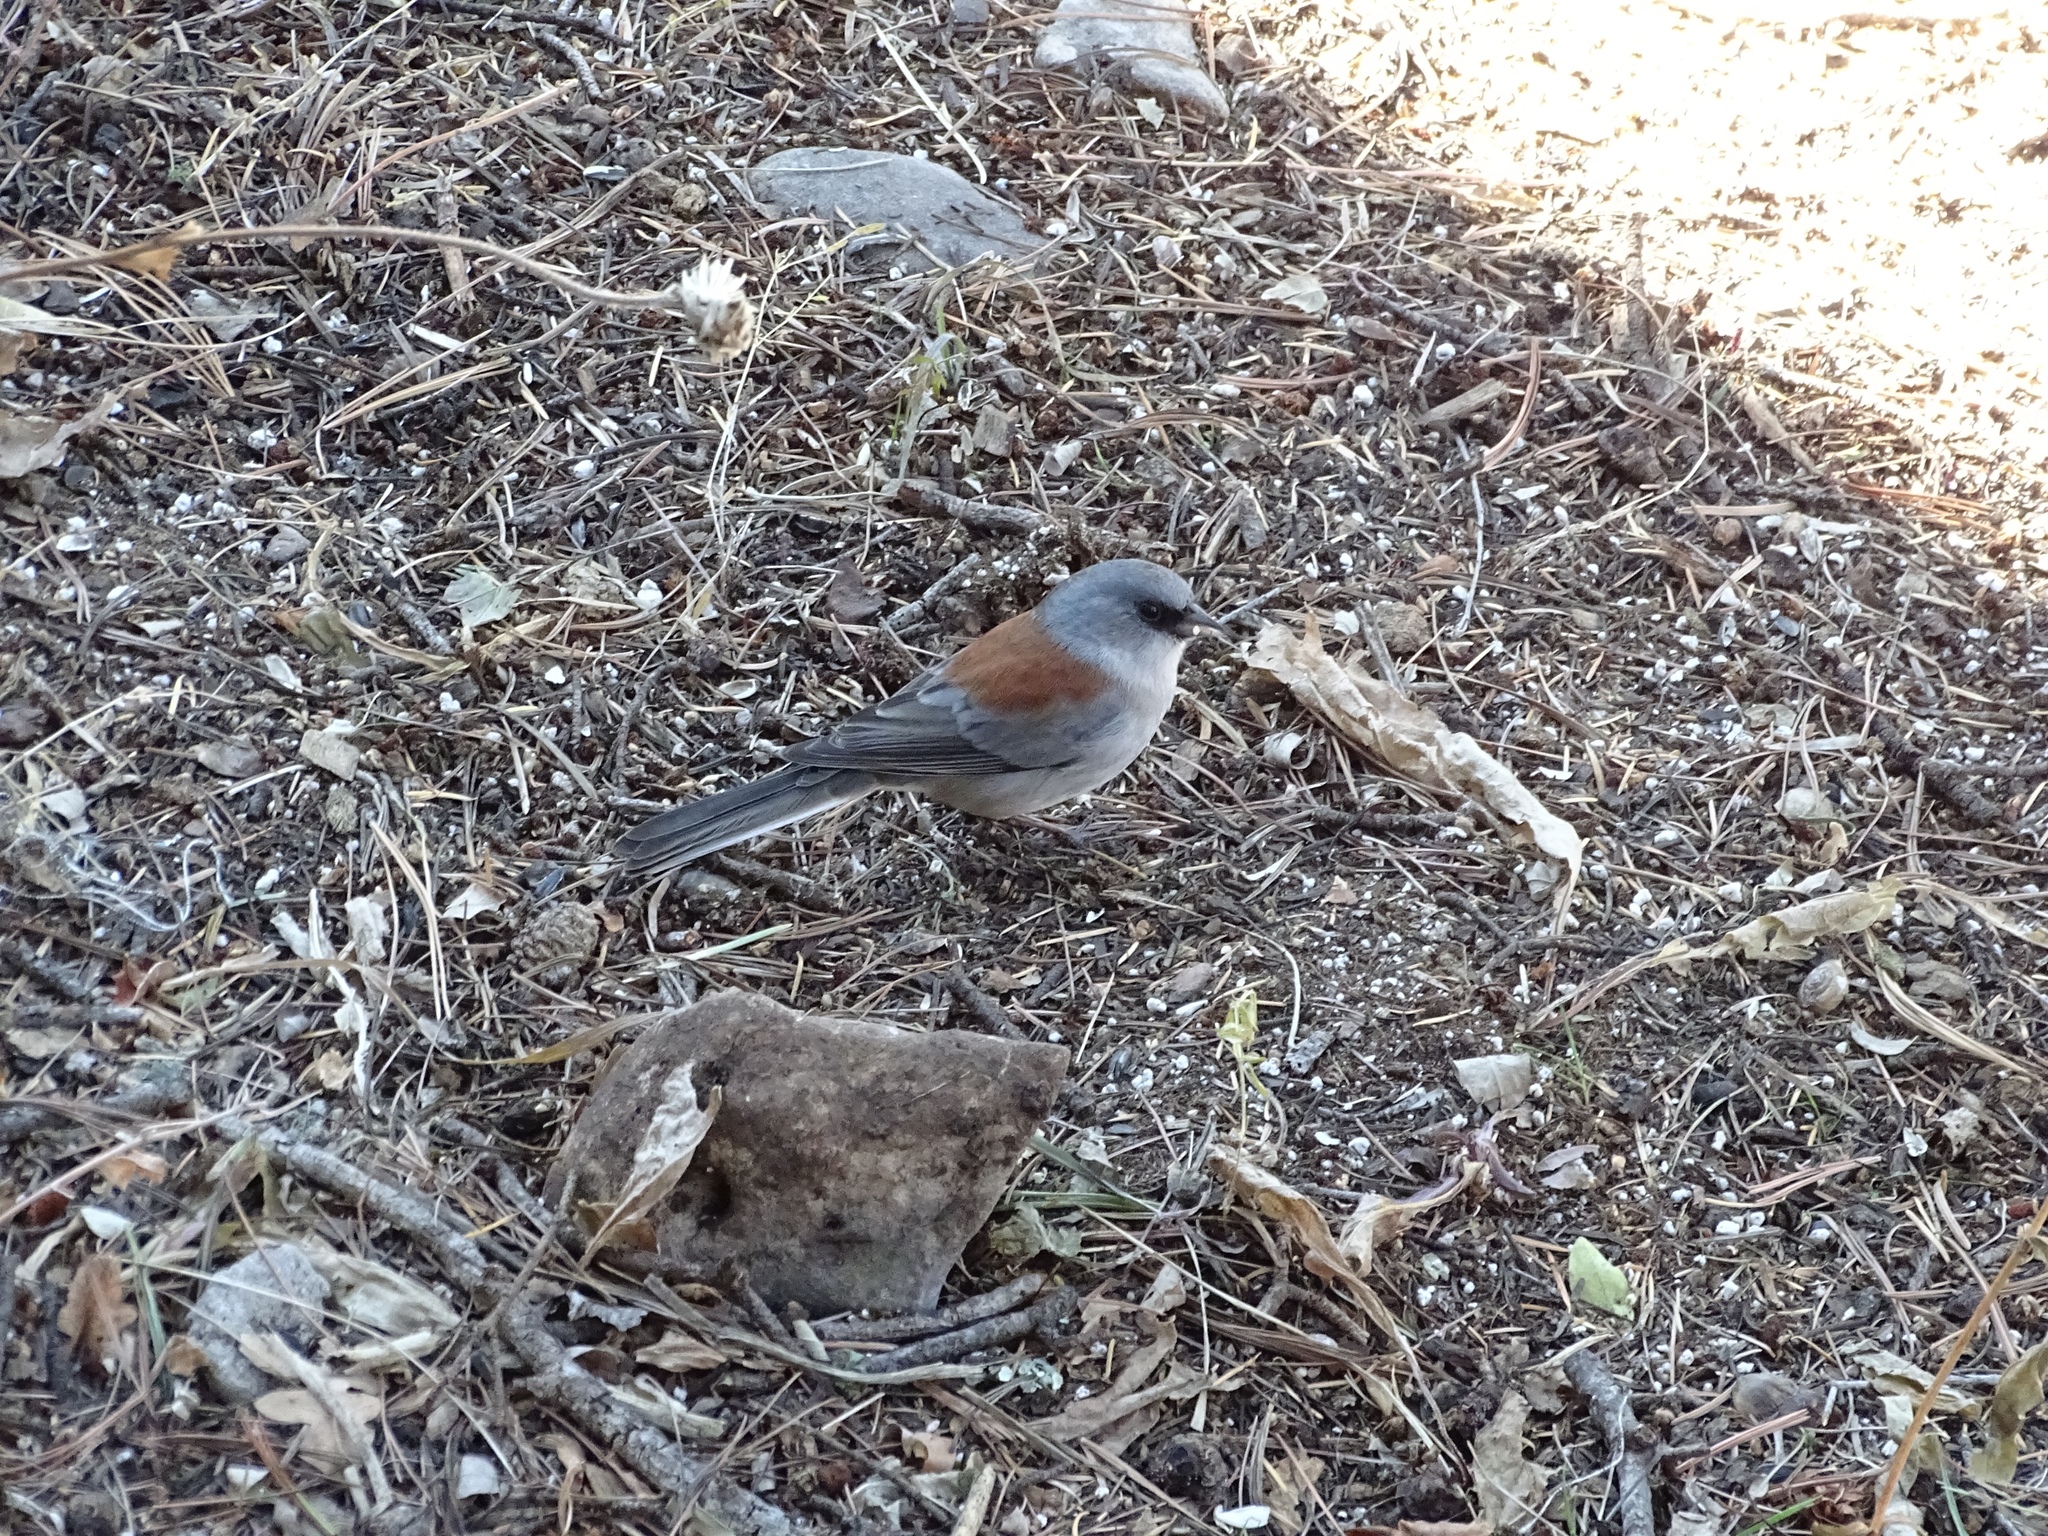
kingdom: Animalia
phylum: Chordata
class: Aves
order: Passeriformes
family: Passerellidae
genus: Junco
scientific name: Junco hyemalis
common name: Dark-eyed junco
